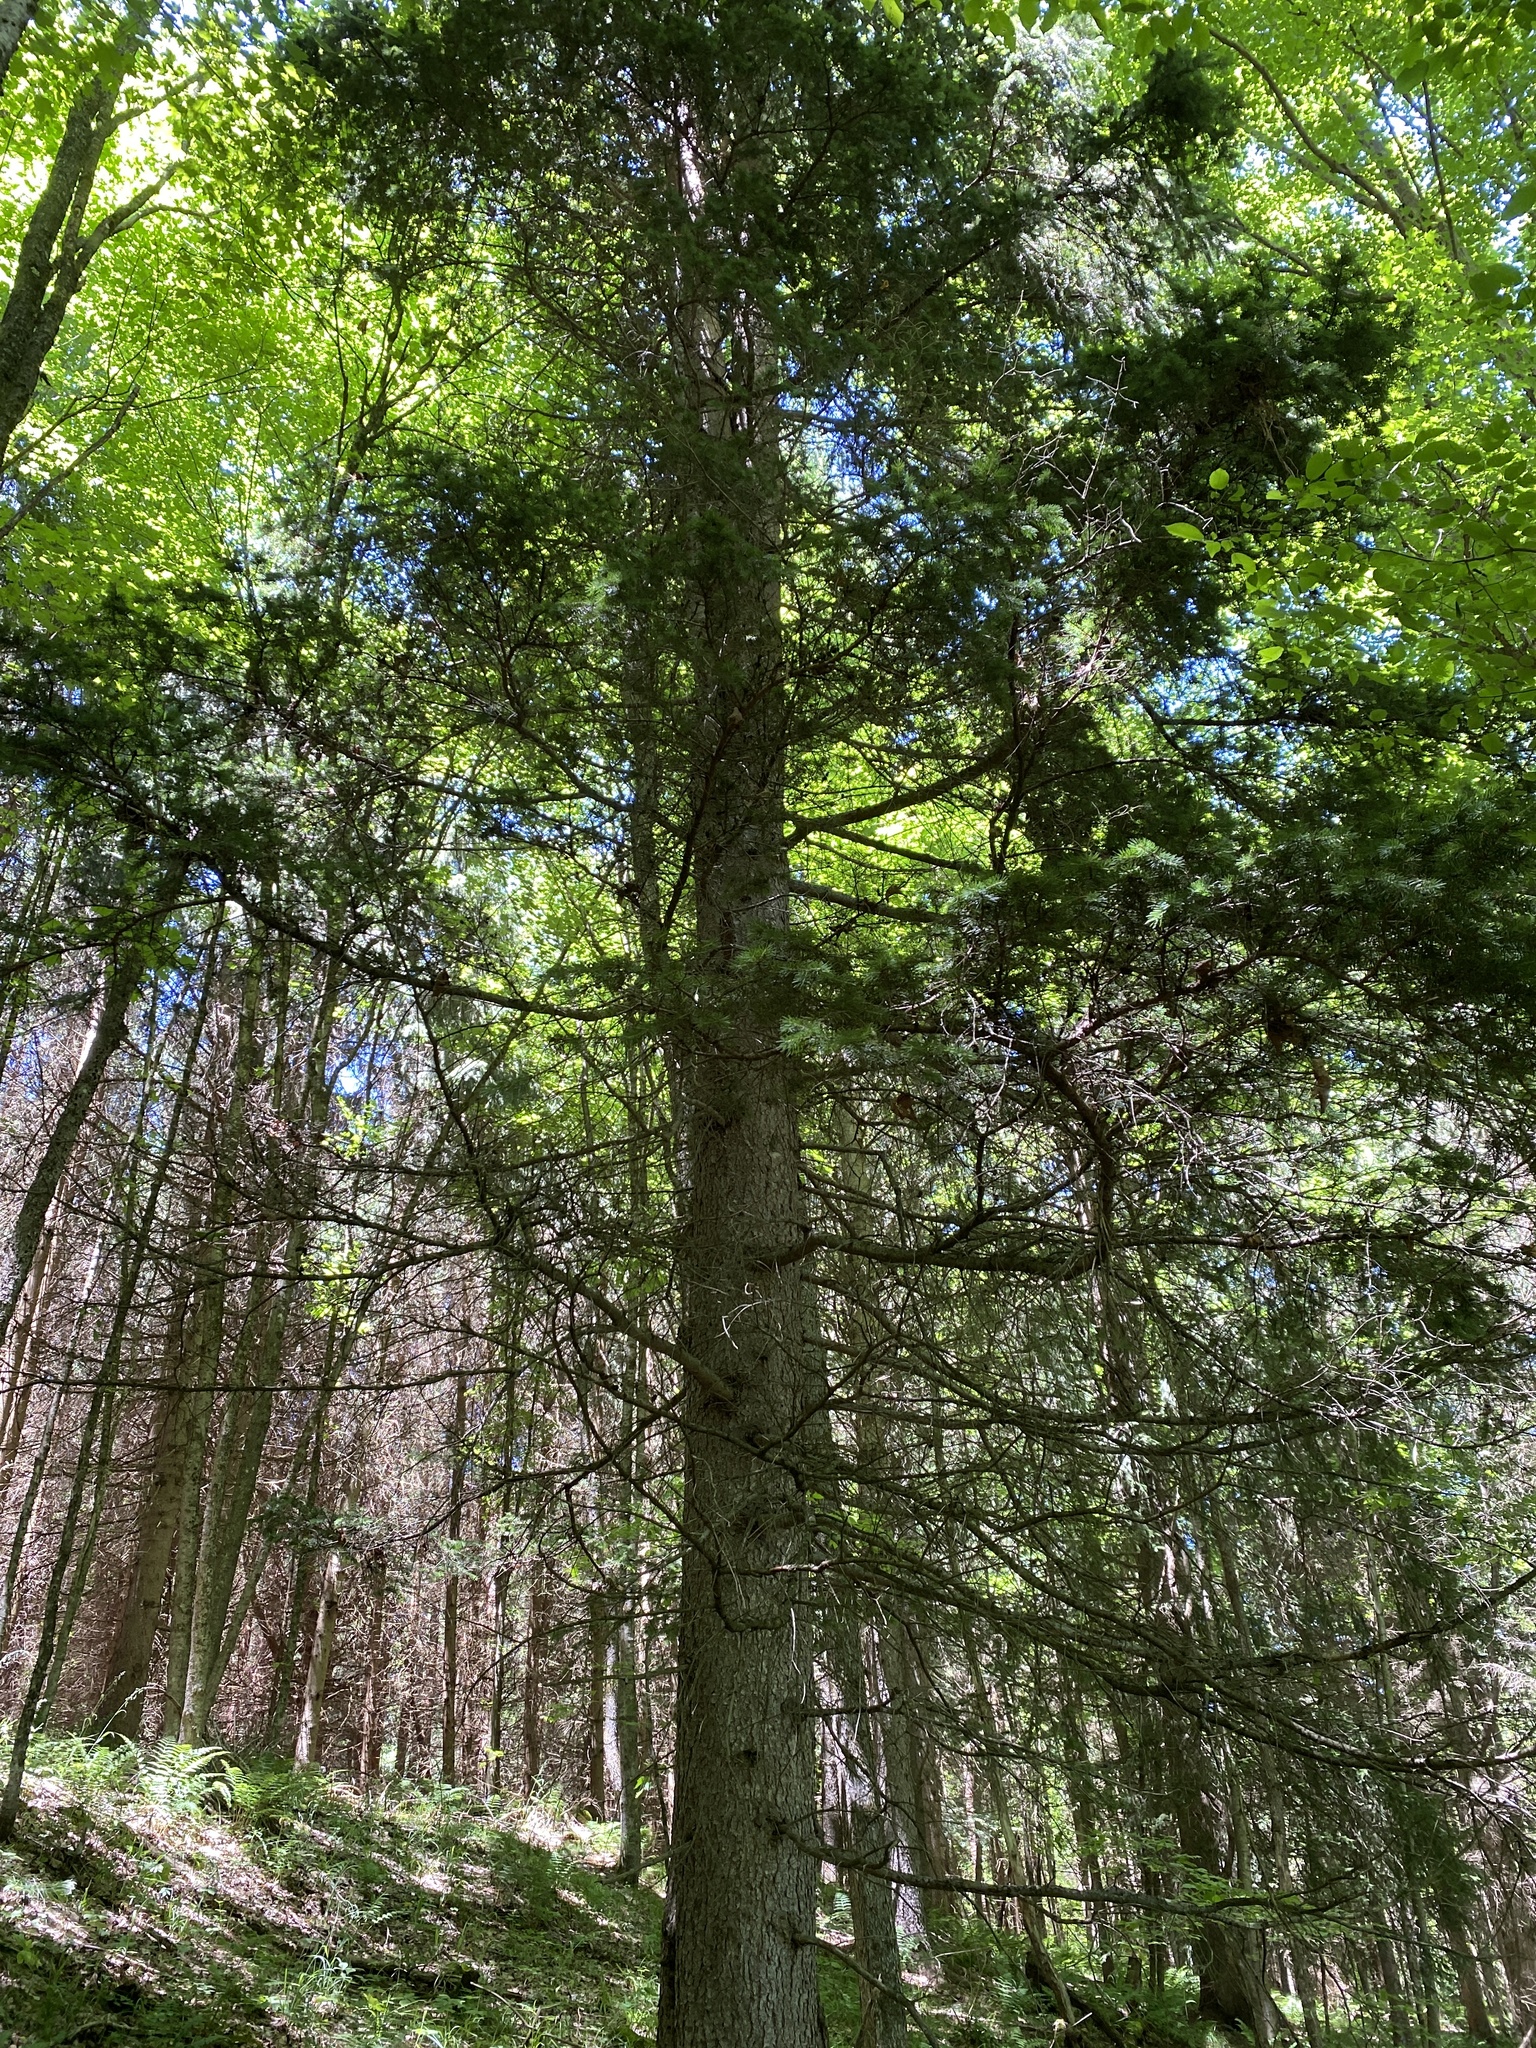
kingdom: Plantae
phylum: Tracheophyta
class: Pinopsida
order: Pinales
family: Pinaceae
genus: Picea
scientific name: Picea abies
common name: Norway spruce
